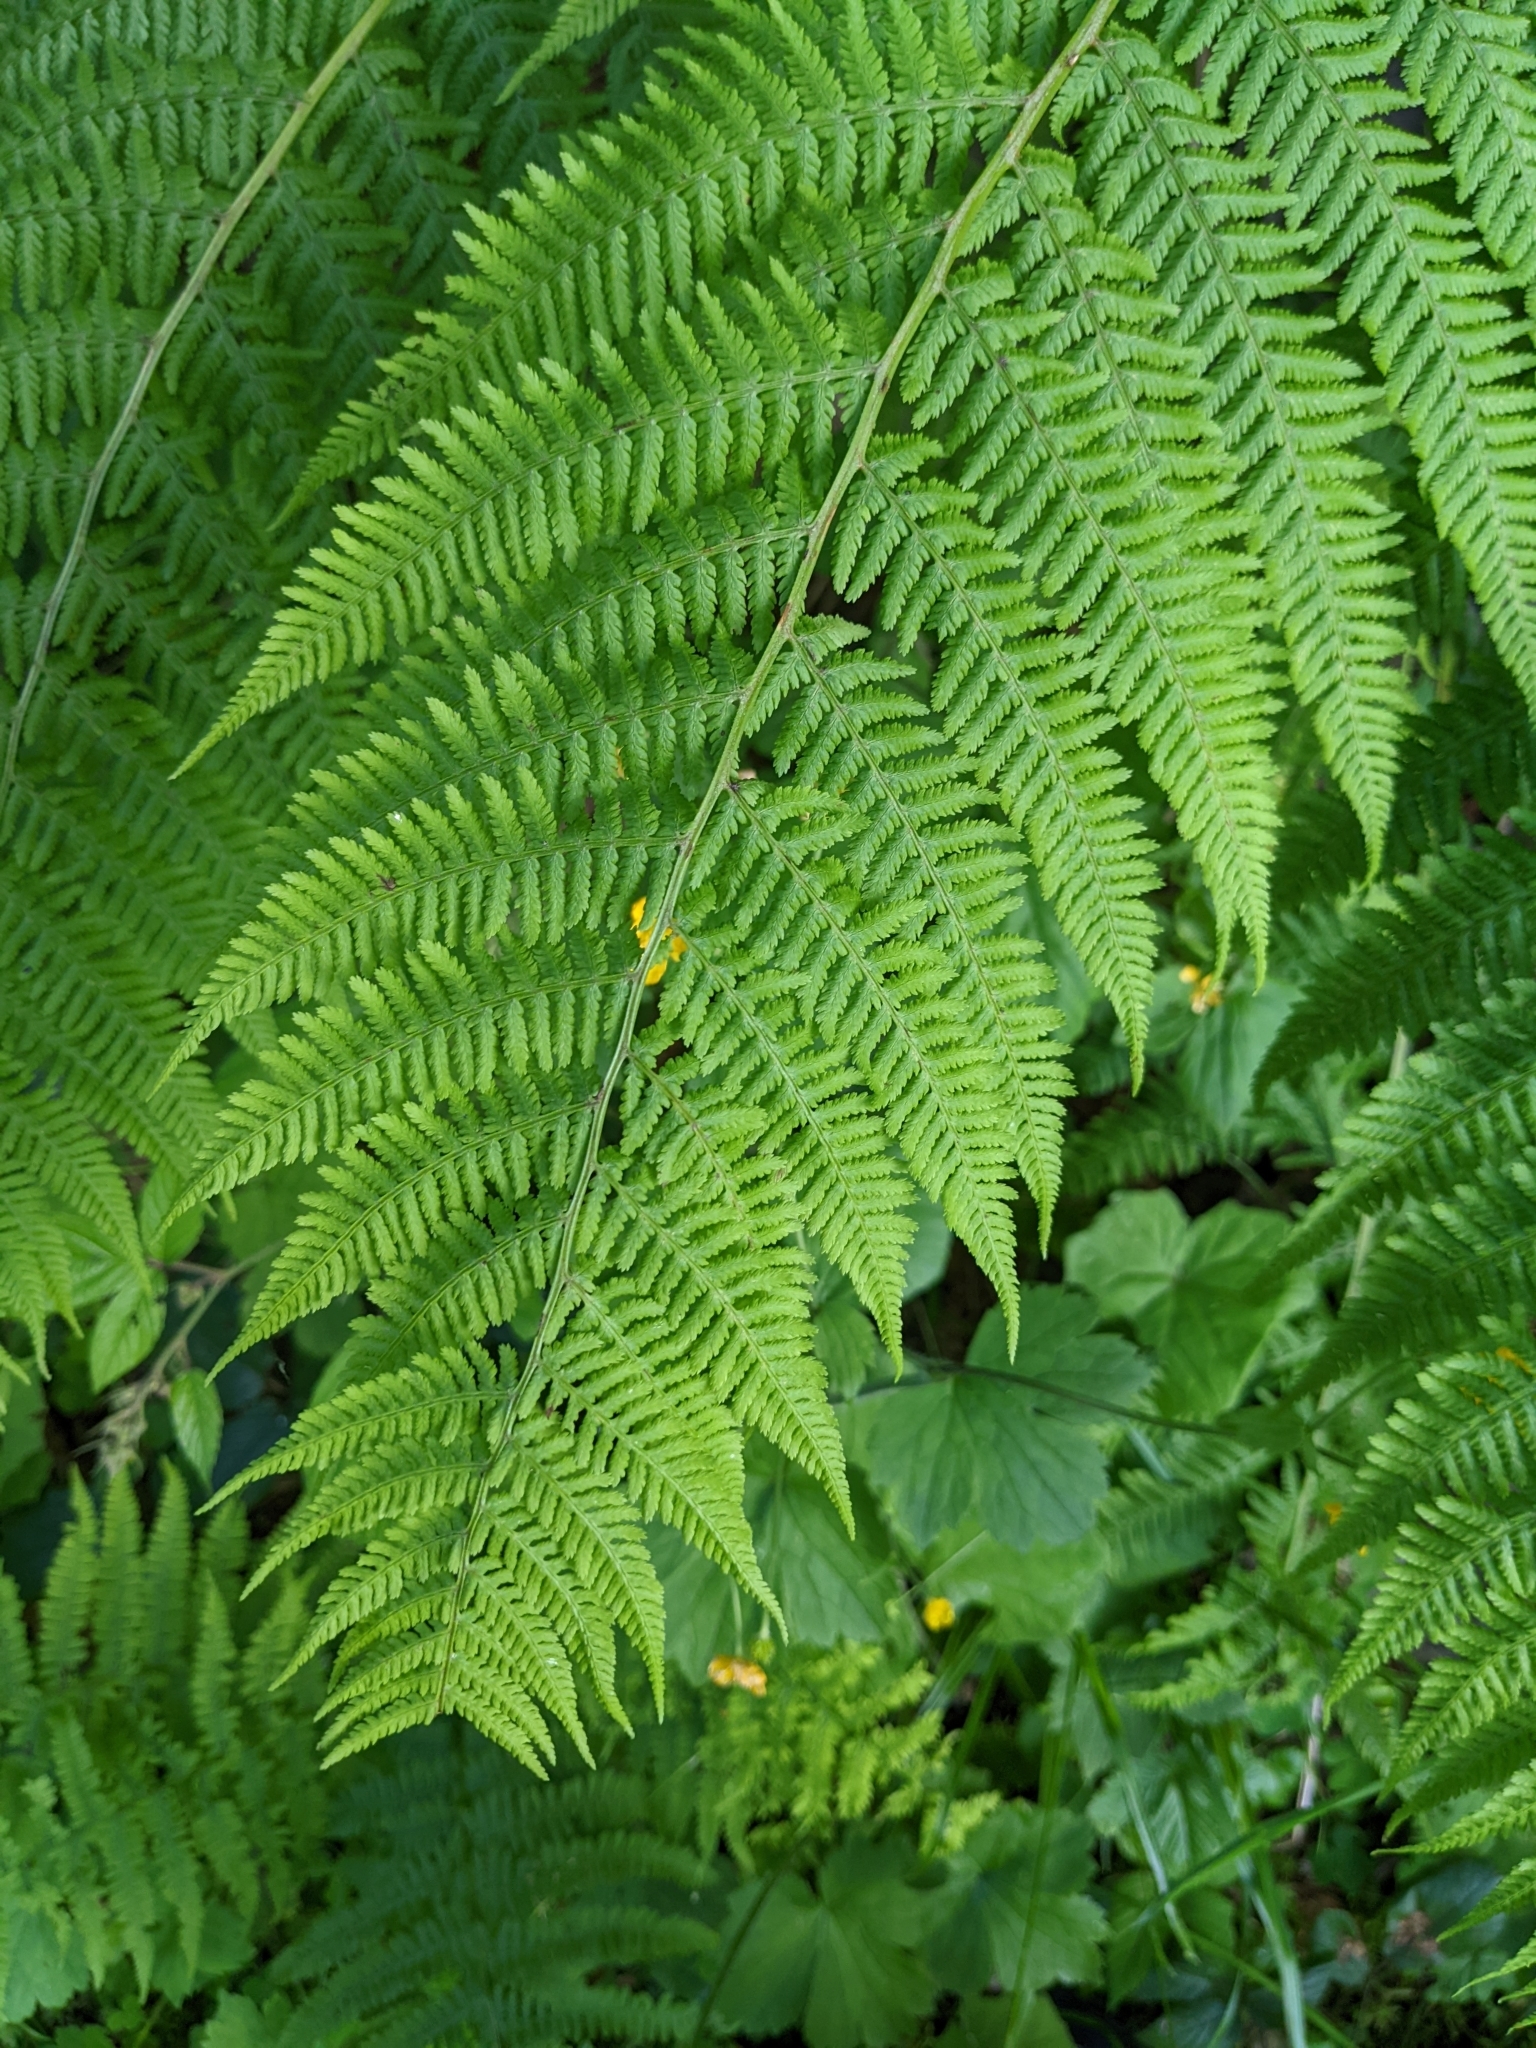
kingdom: Plantae
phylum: Tracheophyta
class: Polypodiopsida
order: Polypodiales
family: Athyriaceae
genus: Athyrium
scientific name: Athyrium filix-femina
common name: Lady fern
